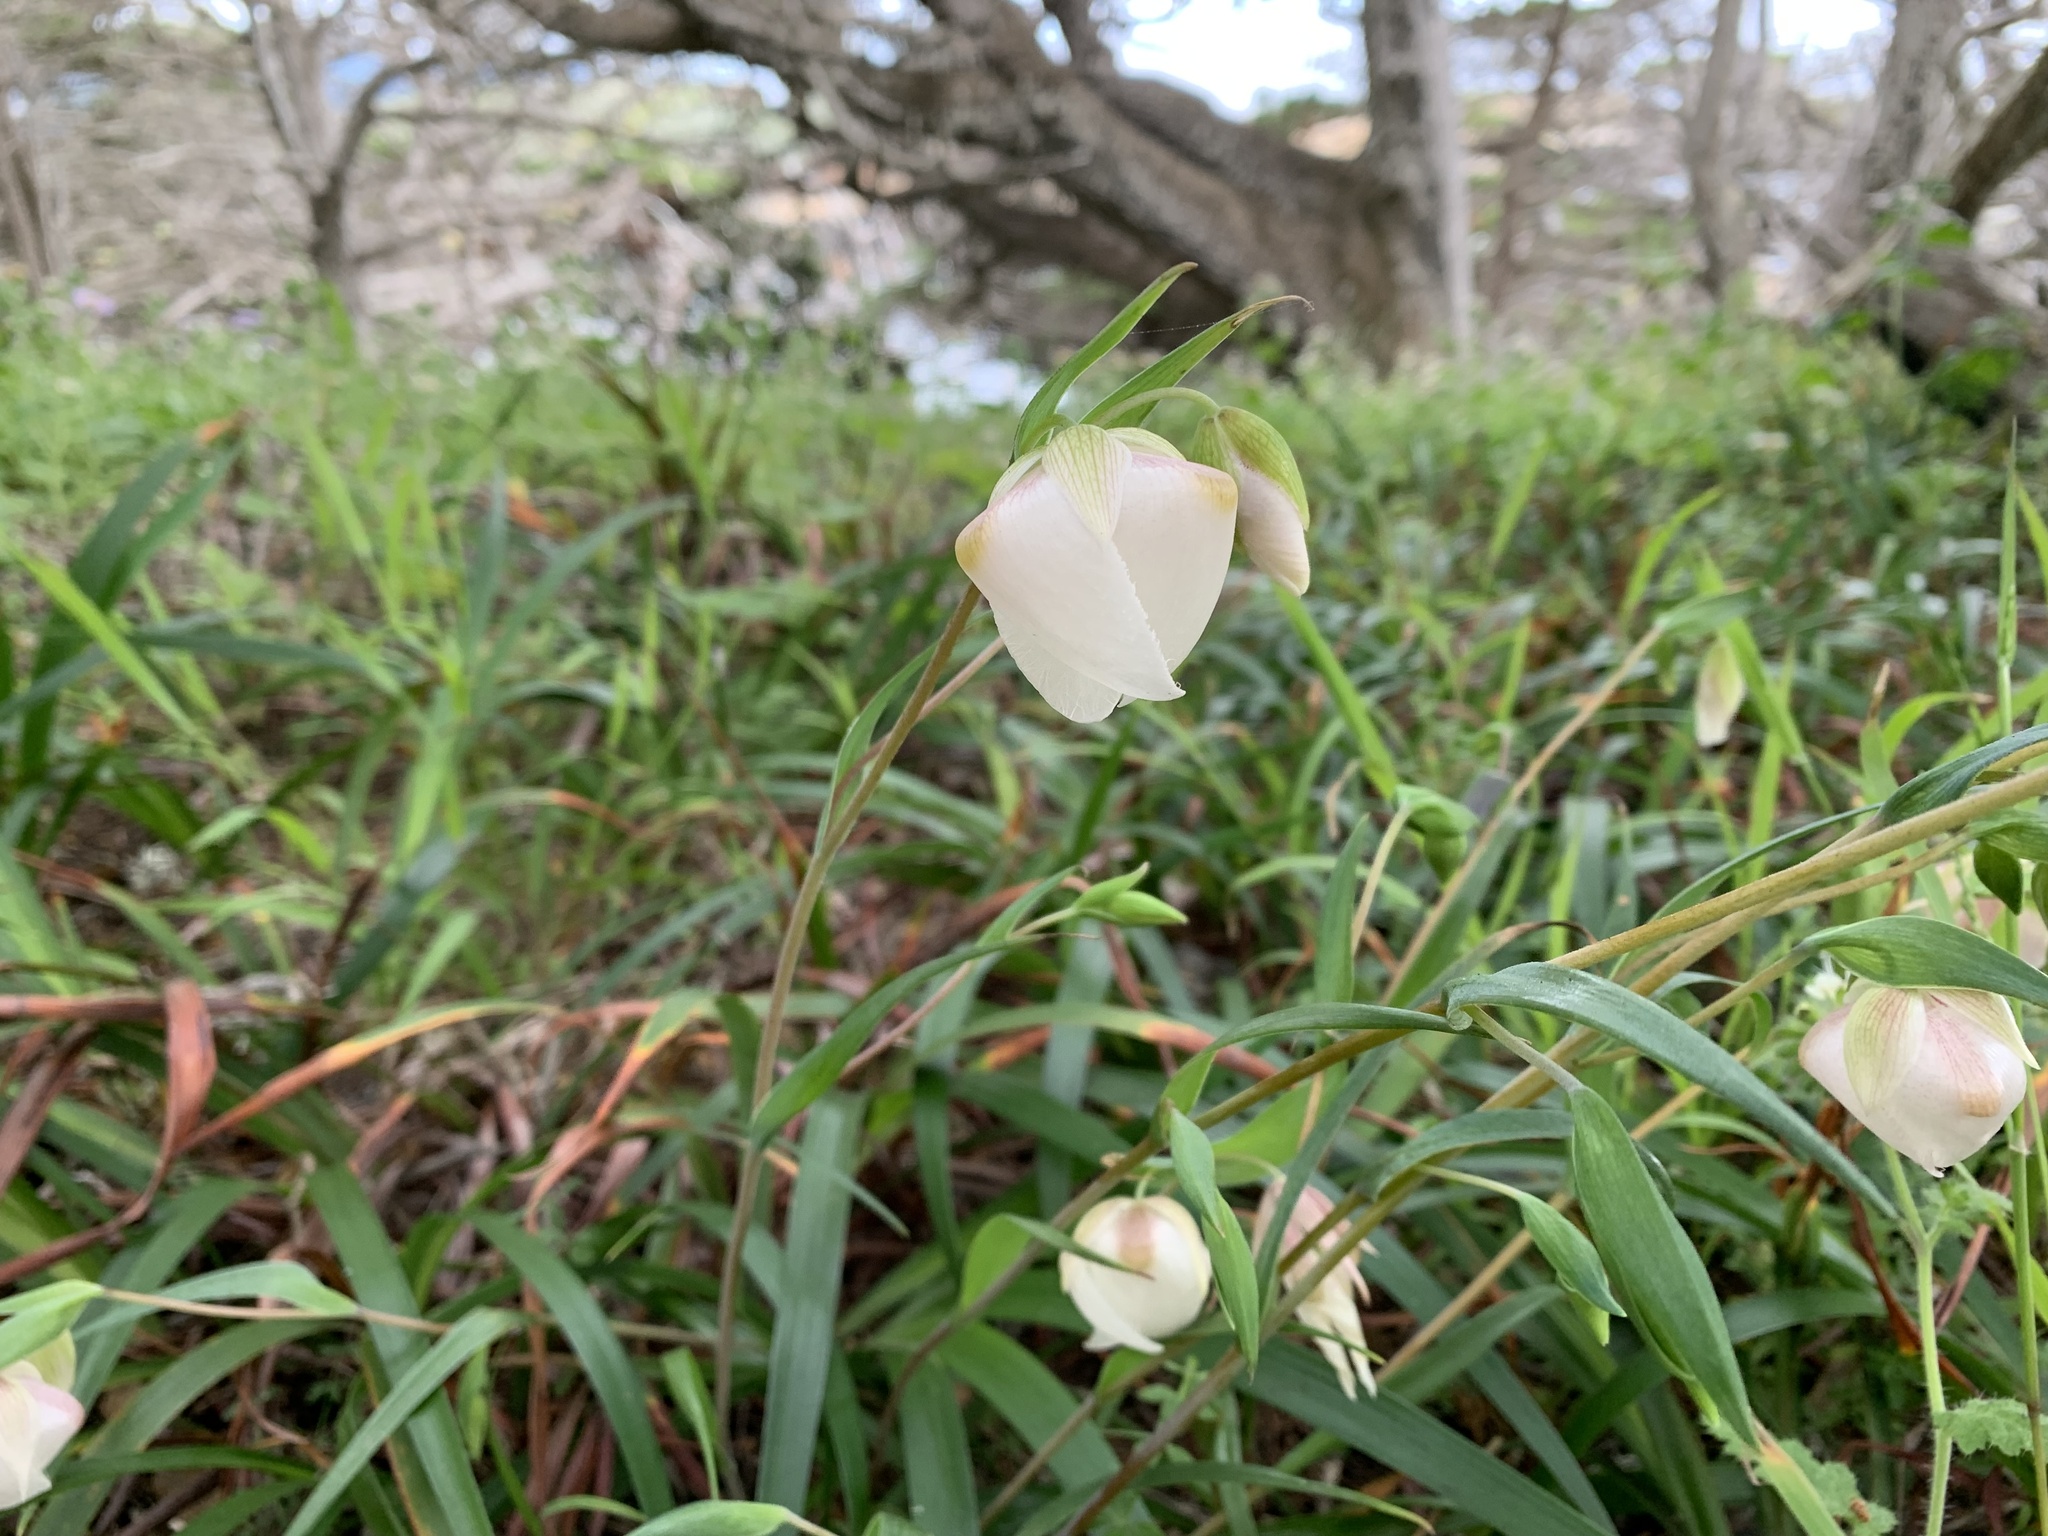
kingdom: Plantae
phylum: Tracheophyta
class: Liliopsida
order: Liliales
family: Liliaceae
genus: Calochortus
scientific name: Calochortus albus
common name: Fairy-lantern
